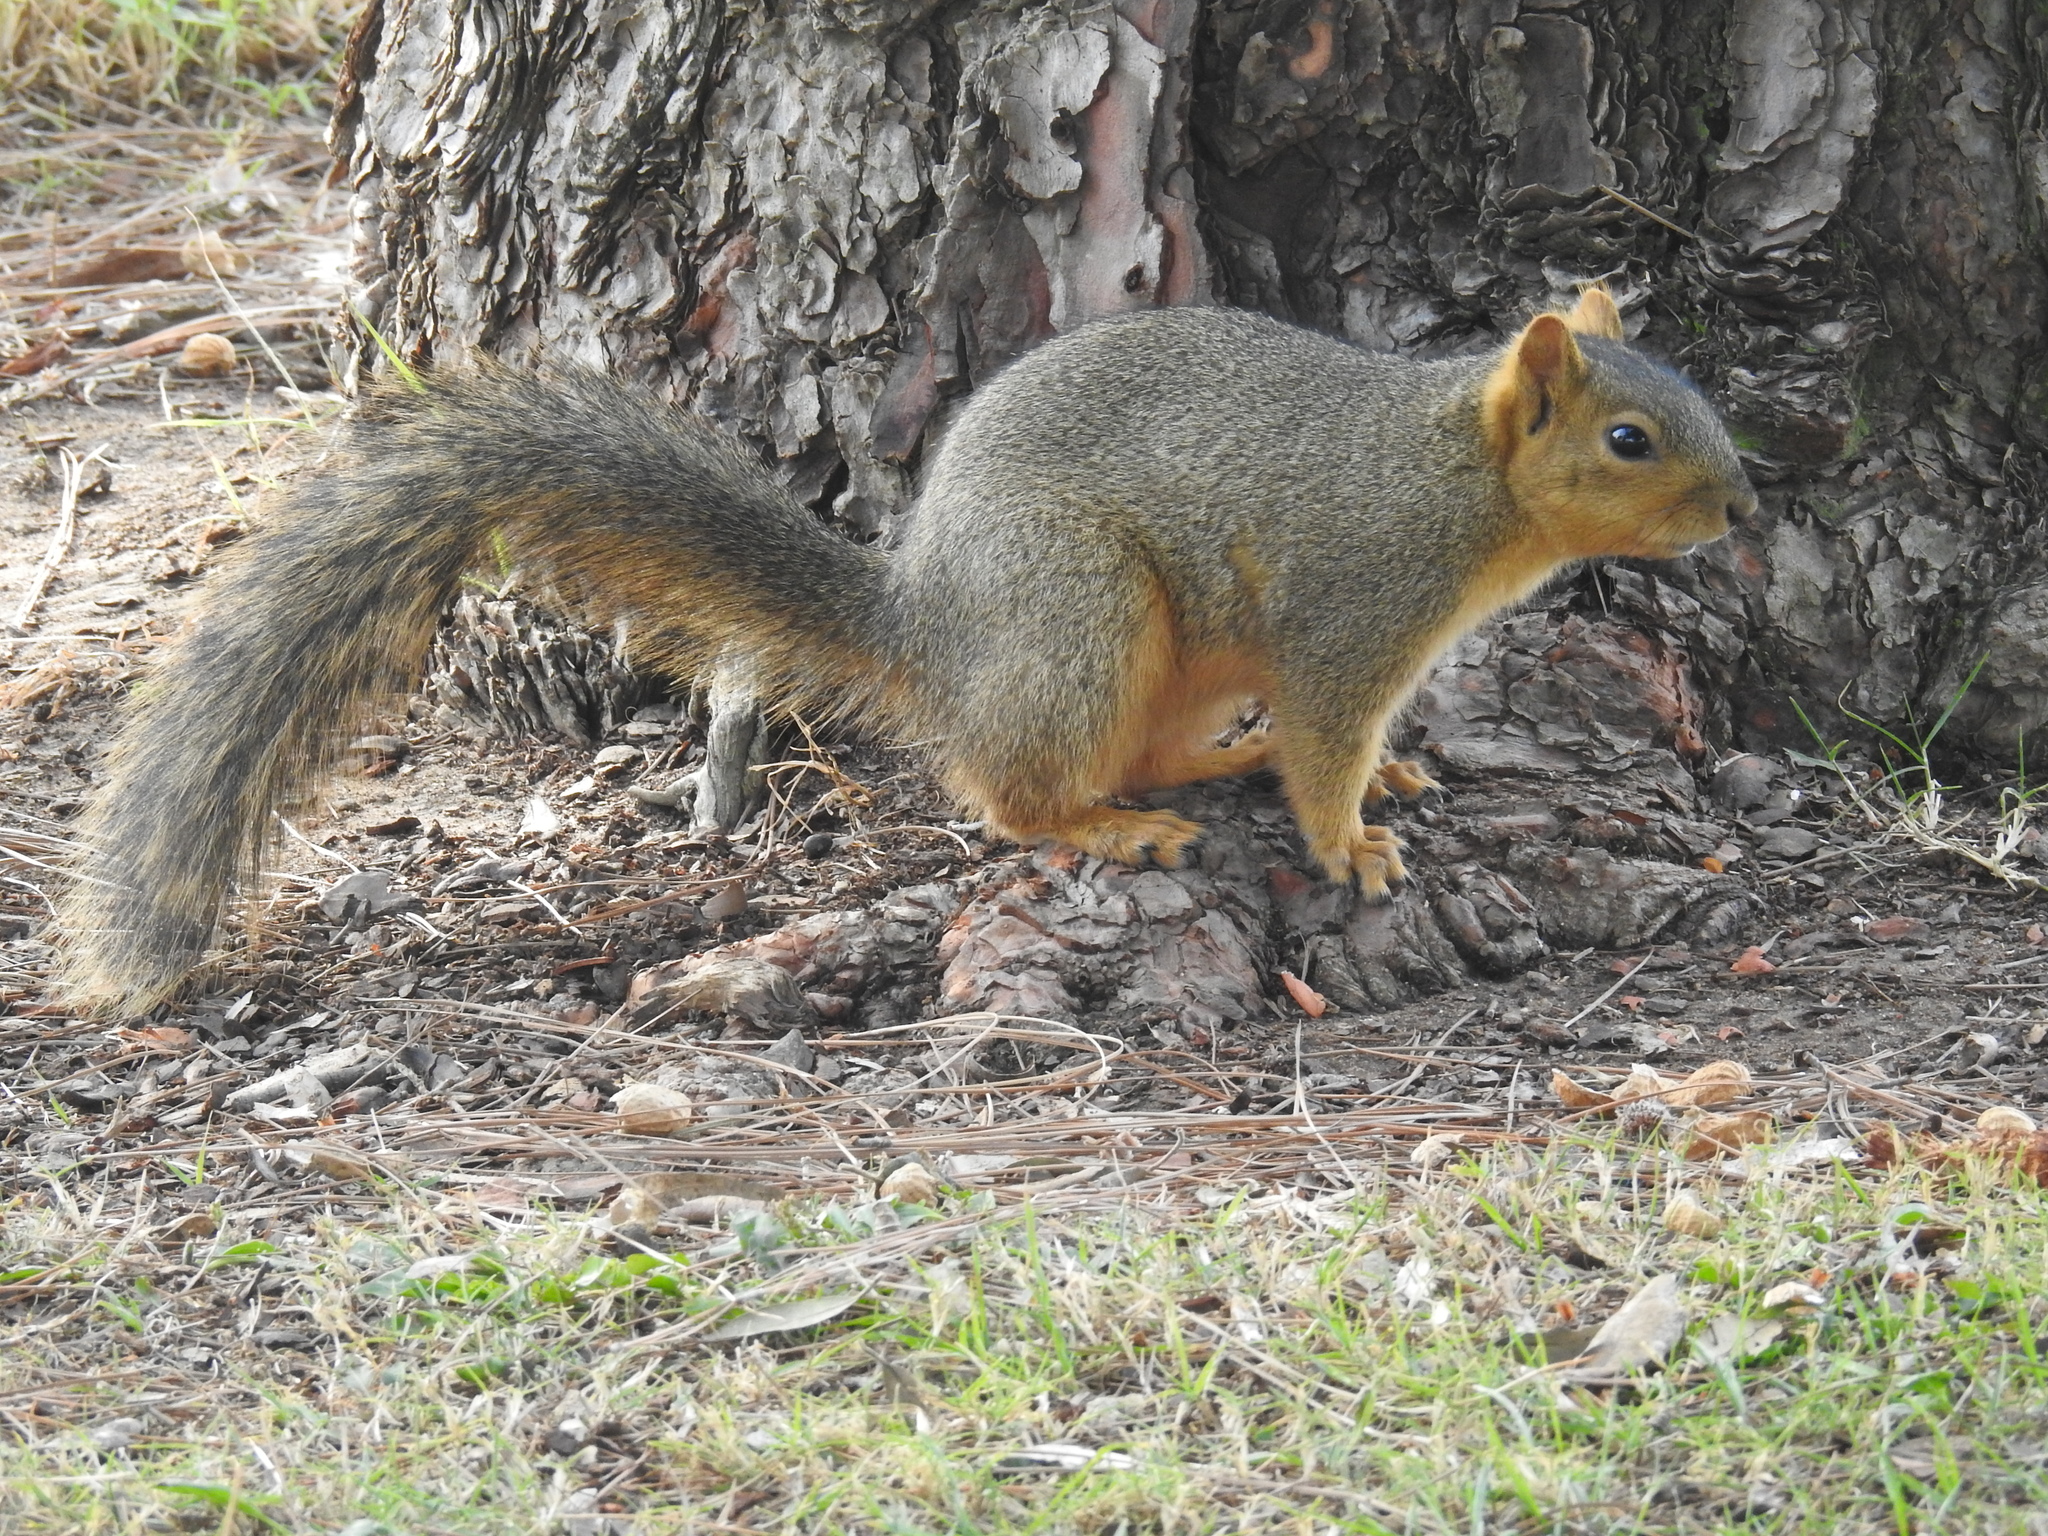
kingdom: Animalia
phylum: Chordata
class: Mammalia
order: Rodentia
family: Sciuridae
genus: Sciurus
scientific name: Sciurus niger
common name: Fox squirrel
